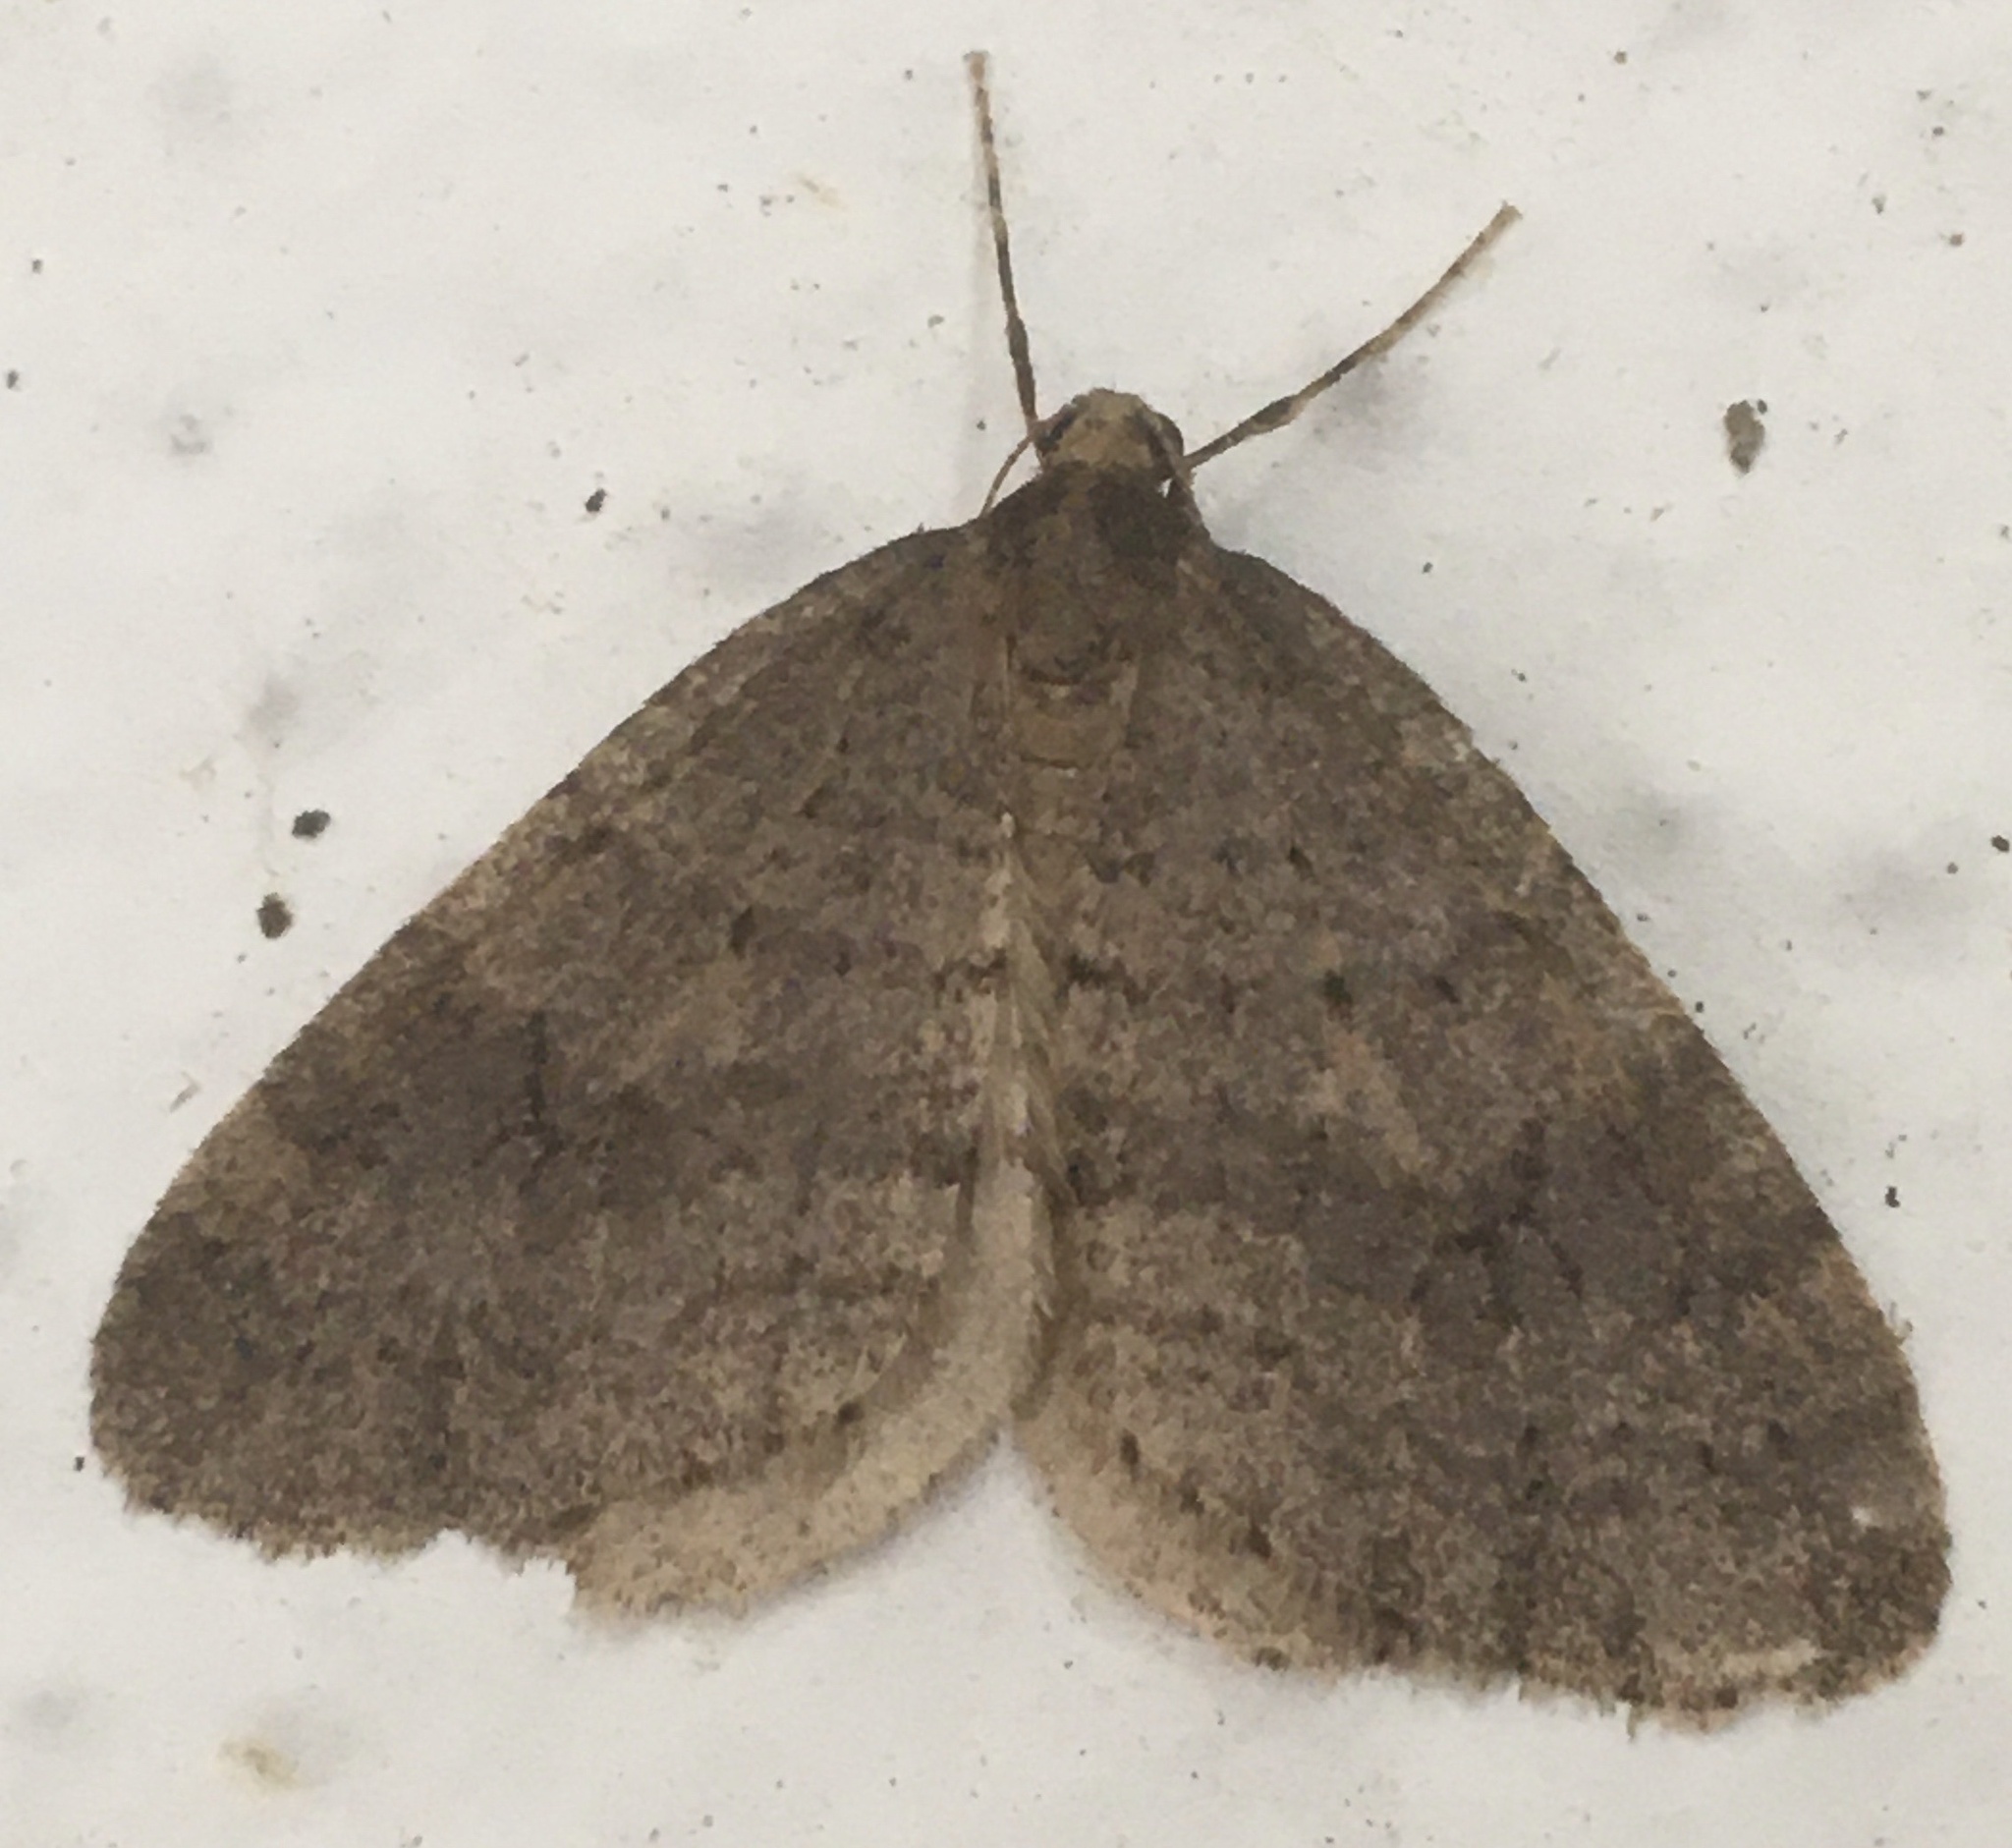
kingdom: Animalia
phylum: Arthropoda
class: Insecta
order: Lepidoptera
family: Geometridae
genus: Operophtera
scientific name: Operophtera brumata
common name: Winter moth
